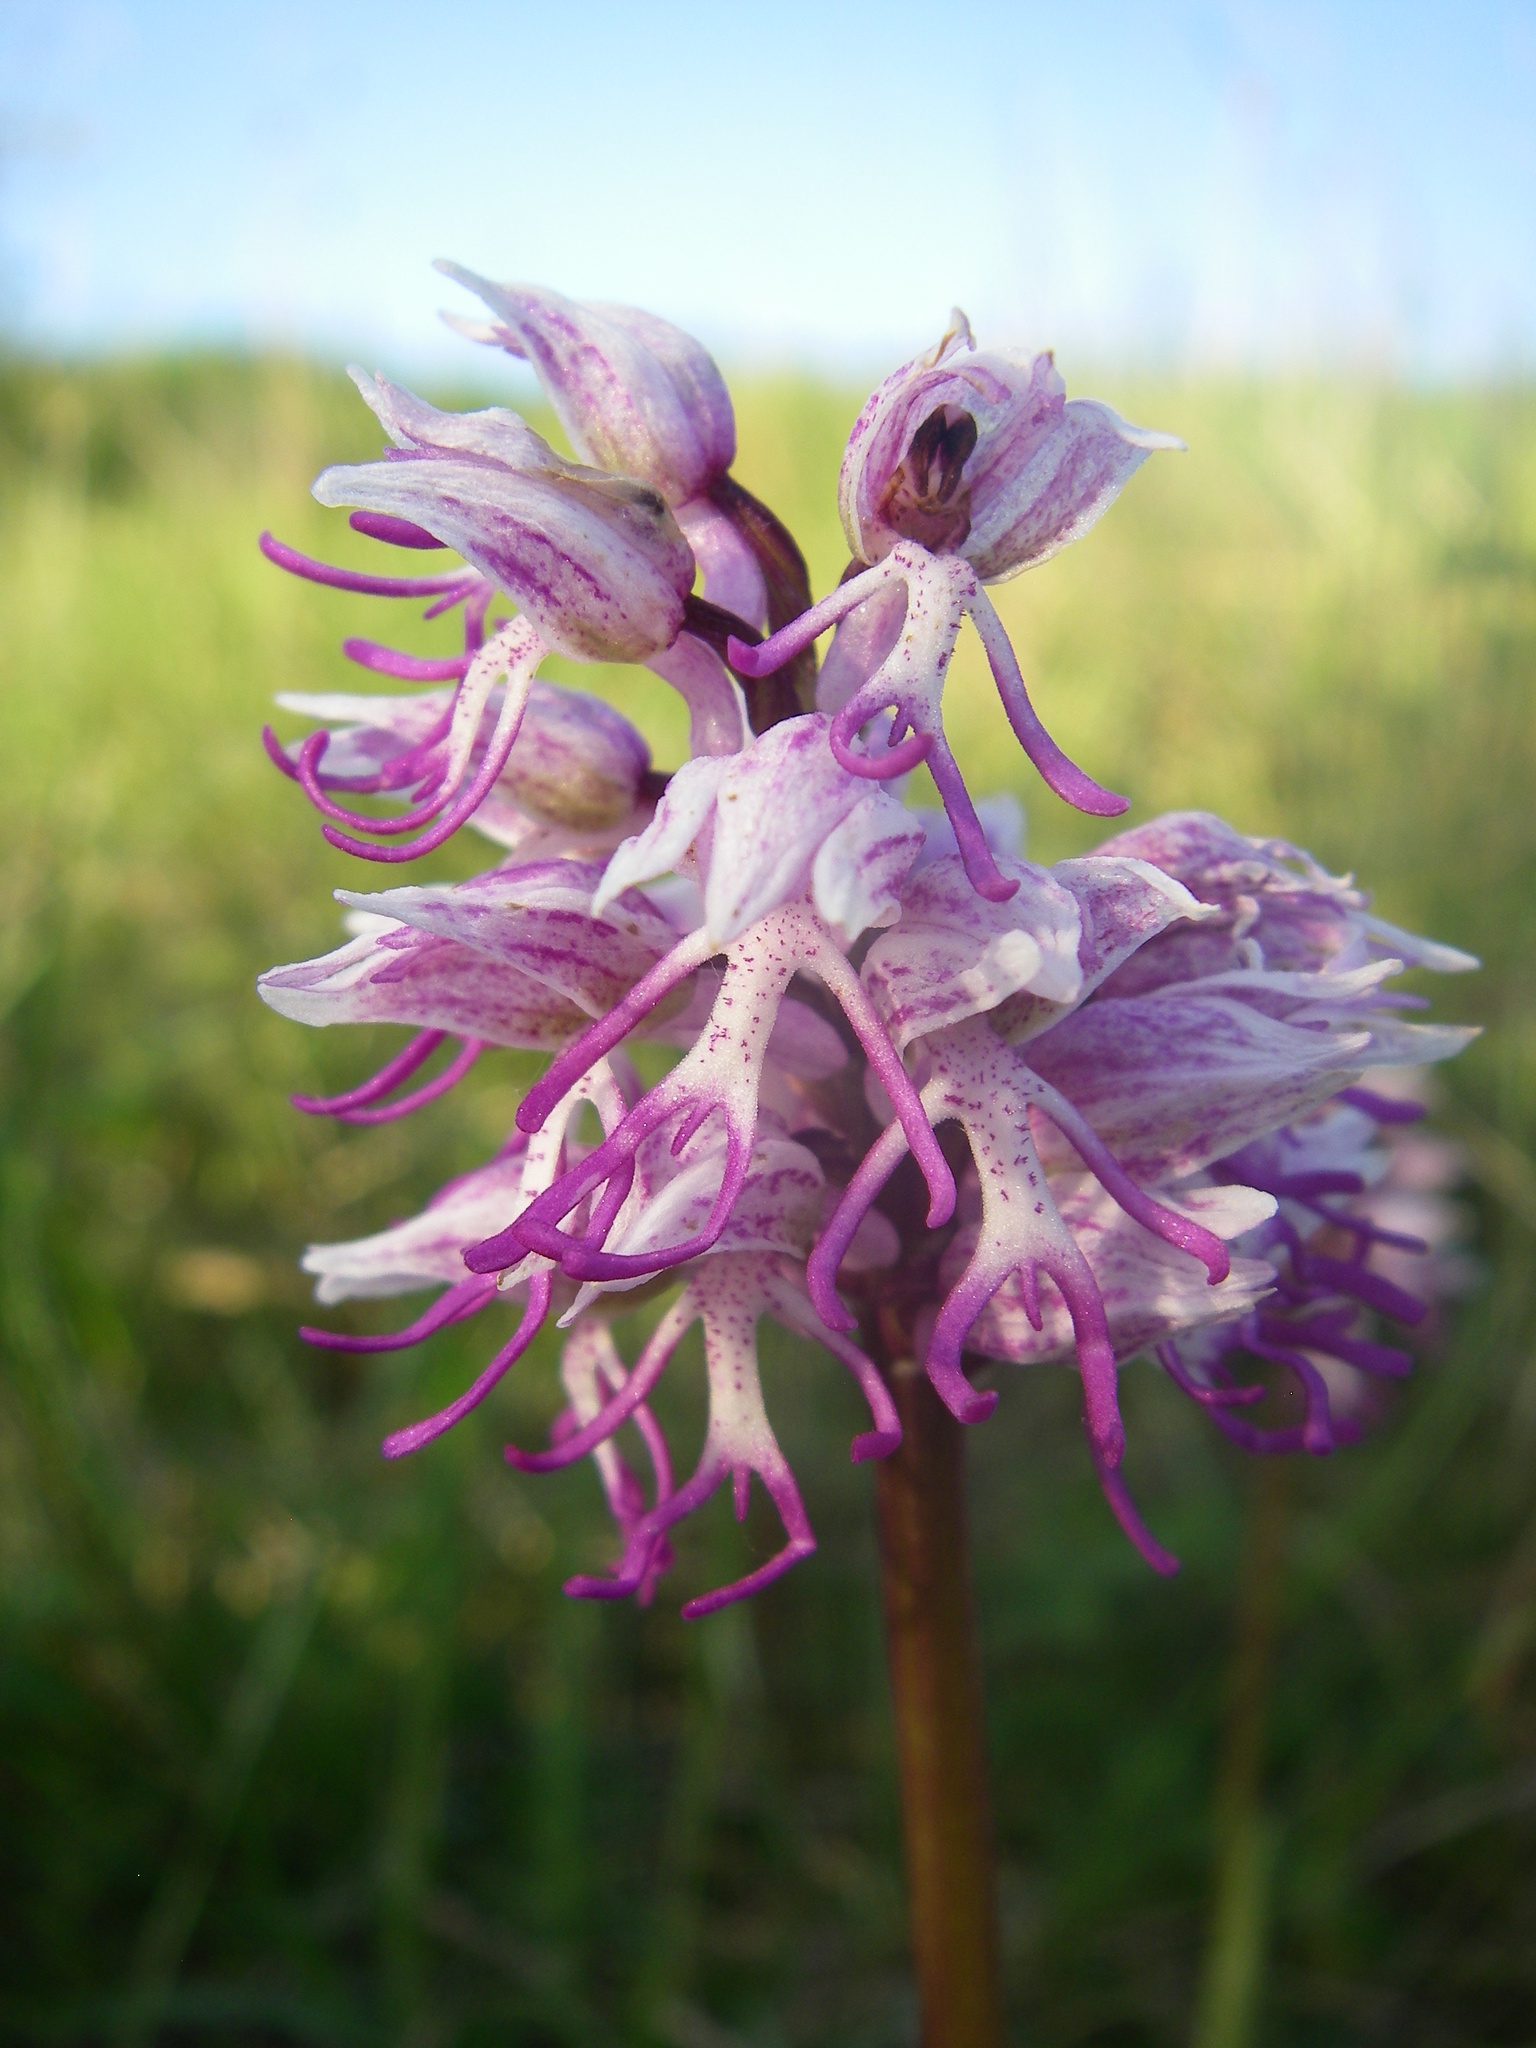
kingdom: Plantae
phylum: Tracheophyta
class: Liliopsida
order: Asparagales
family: Orchidaceae
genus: Orchis
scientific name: Orchis simia
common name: Monkey orchid
